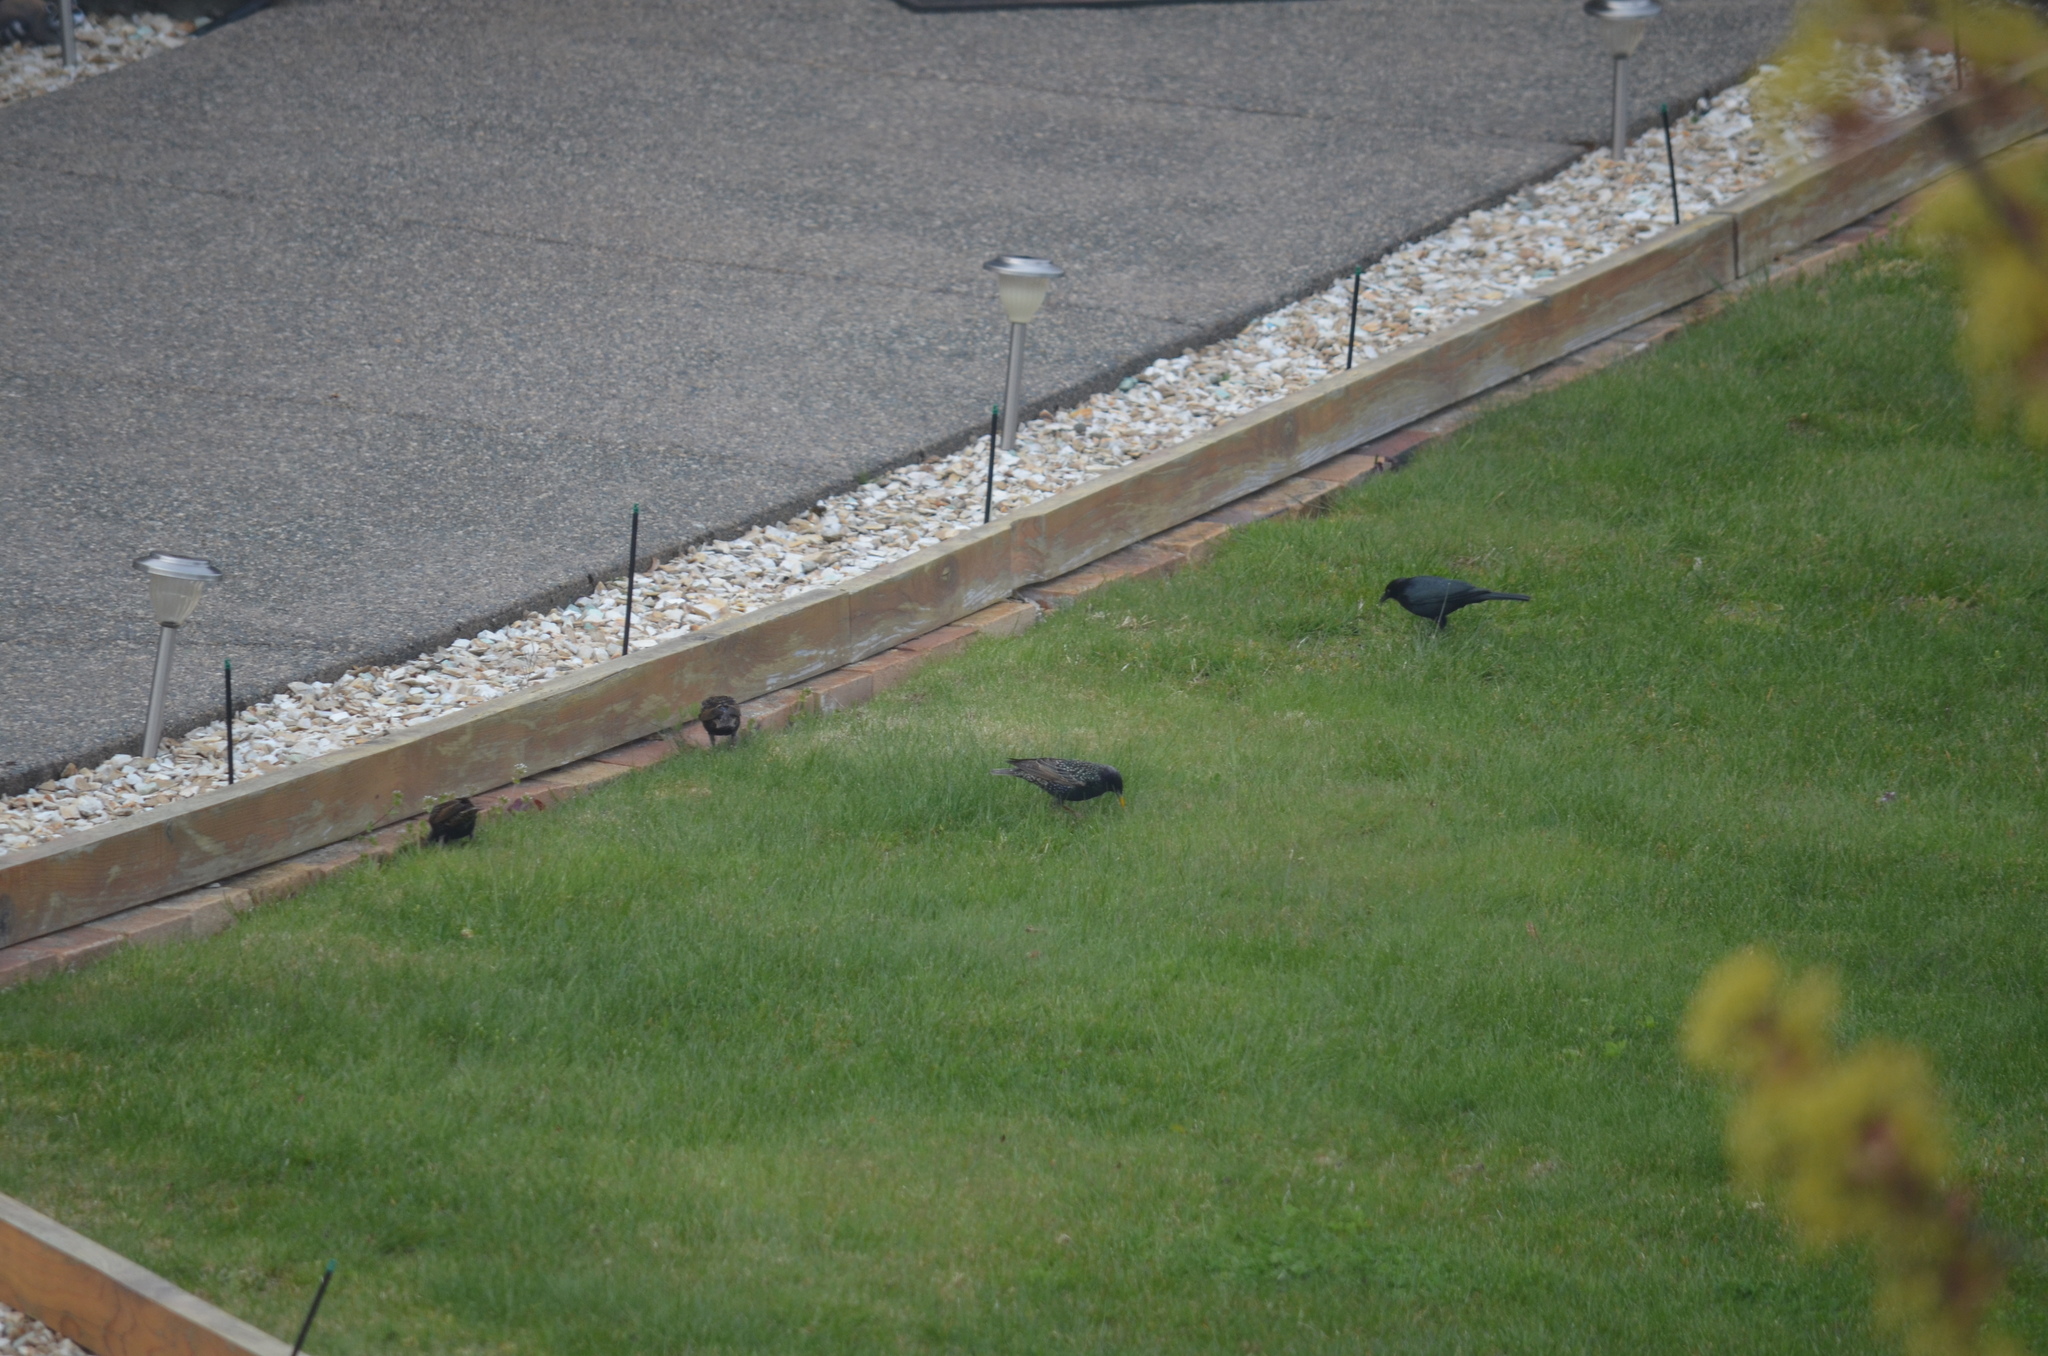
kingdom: Animalia
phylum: Chordata
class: Aves
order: Passeriformes
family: Icteridae
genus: Euphagus
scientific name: Euphagus cyanocephalus
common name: Brewer's blackbird
